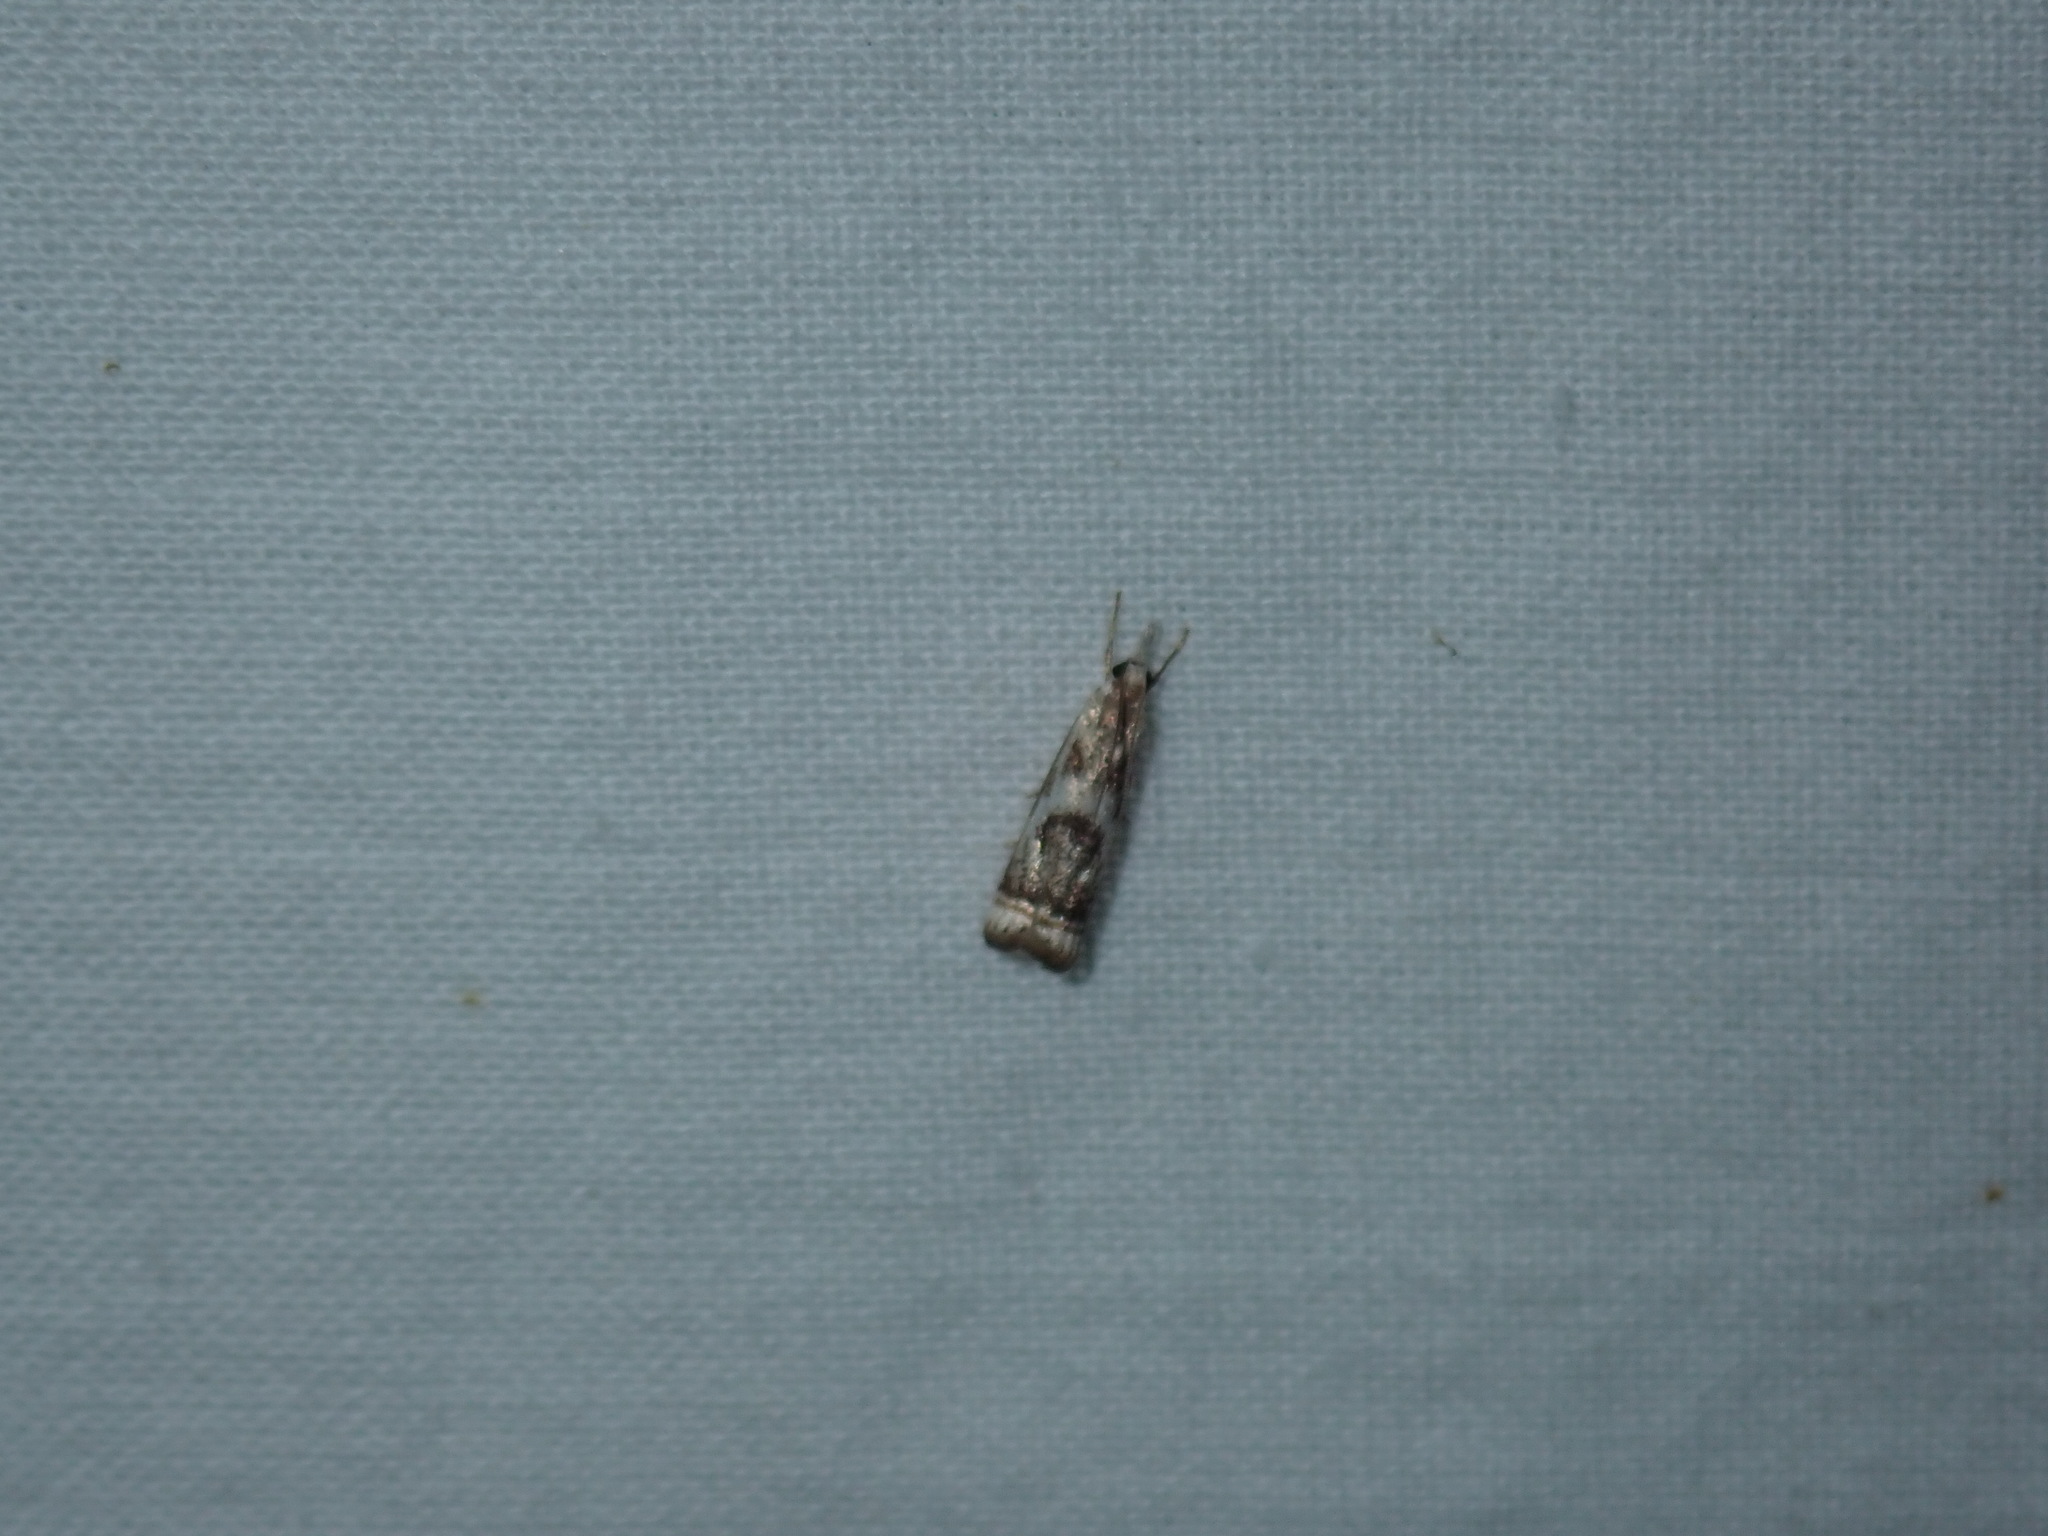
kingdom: Animalia
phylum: Arthropoda
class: Insecta
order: Lepidoptera
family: Crambidae
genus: Microcrambus
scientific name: Microcrambus elegans
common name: Elegant grass-veneer
